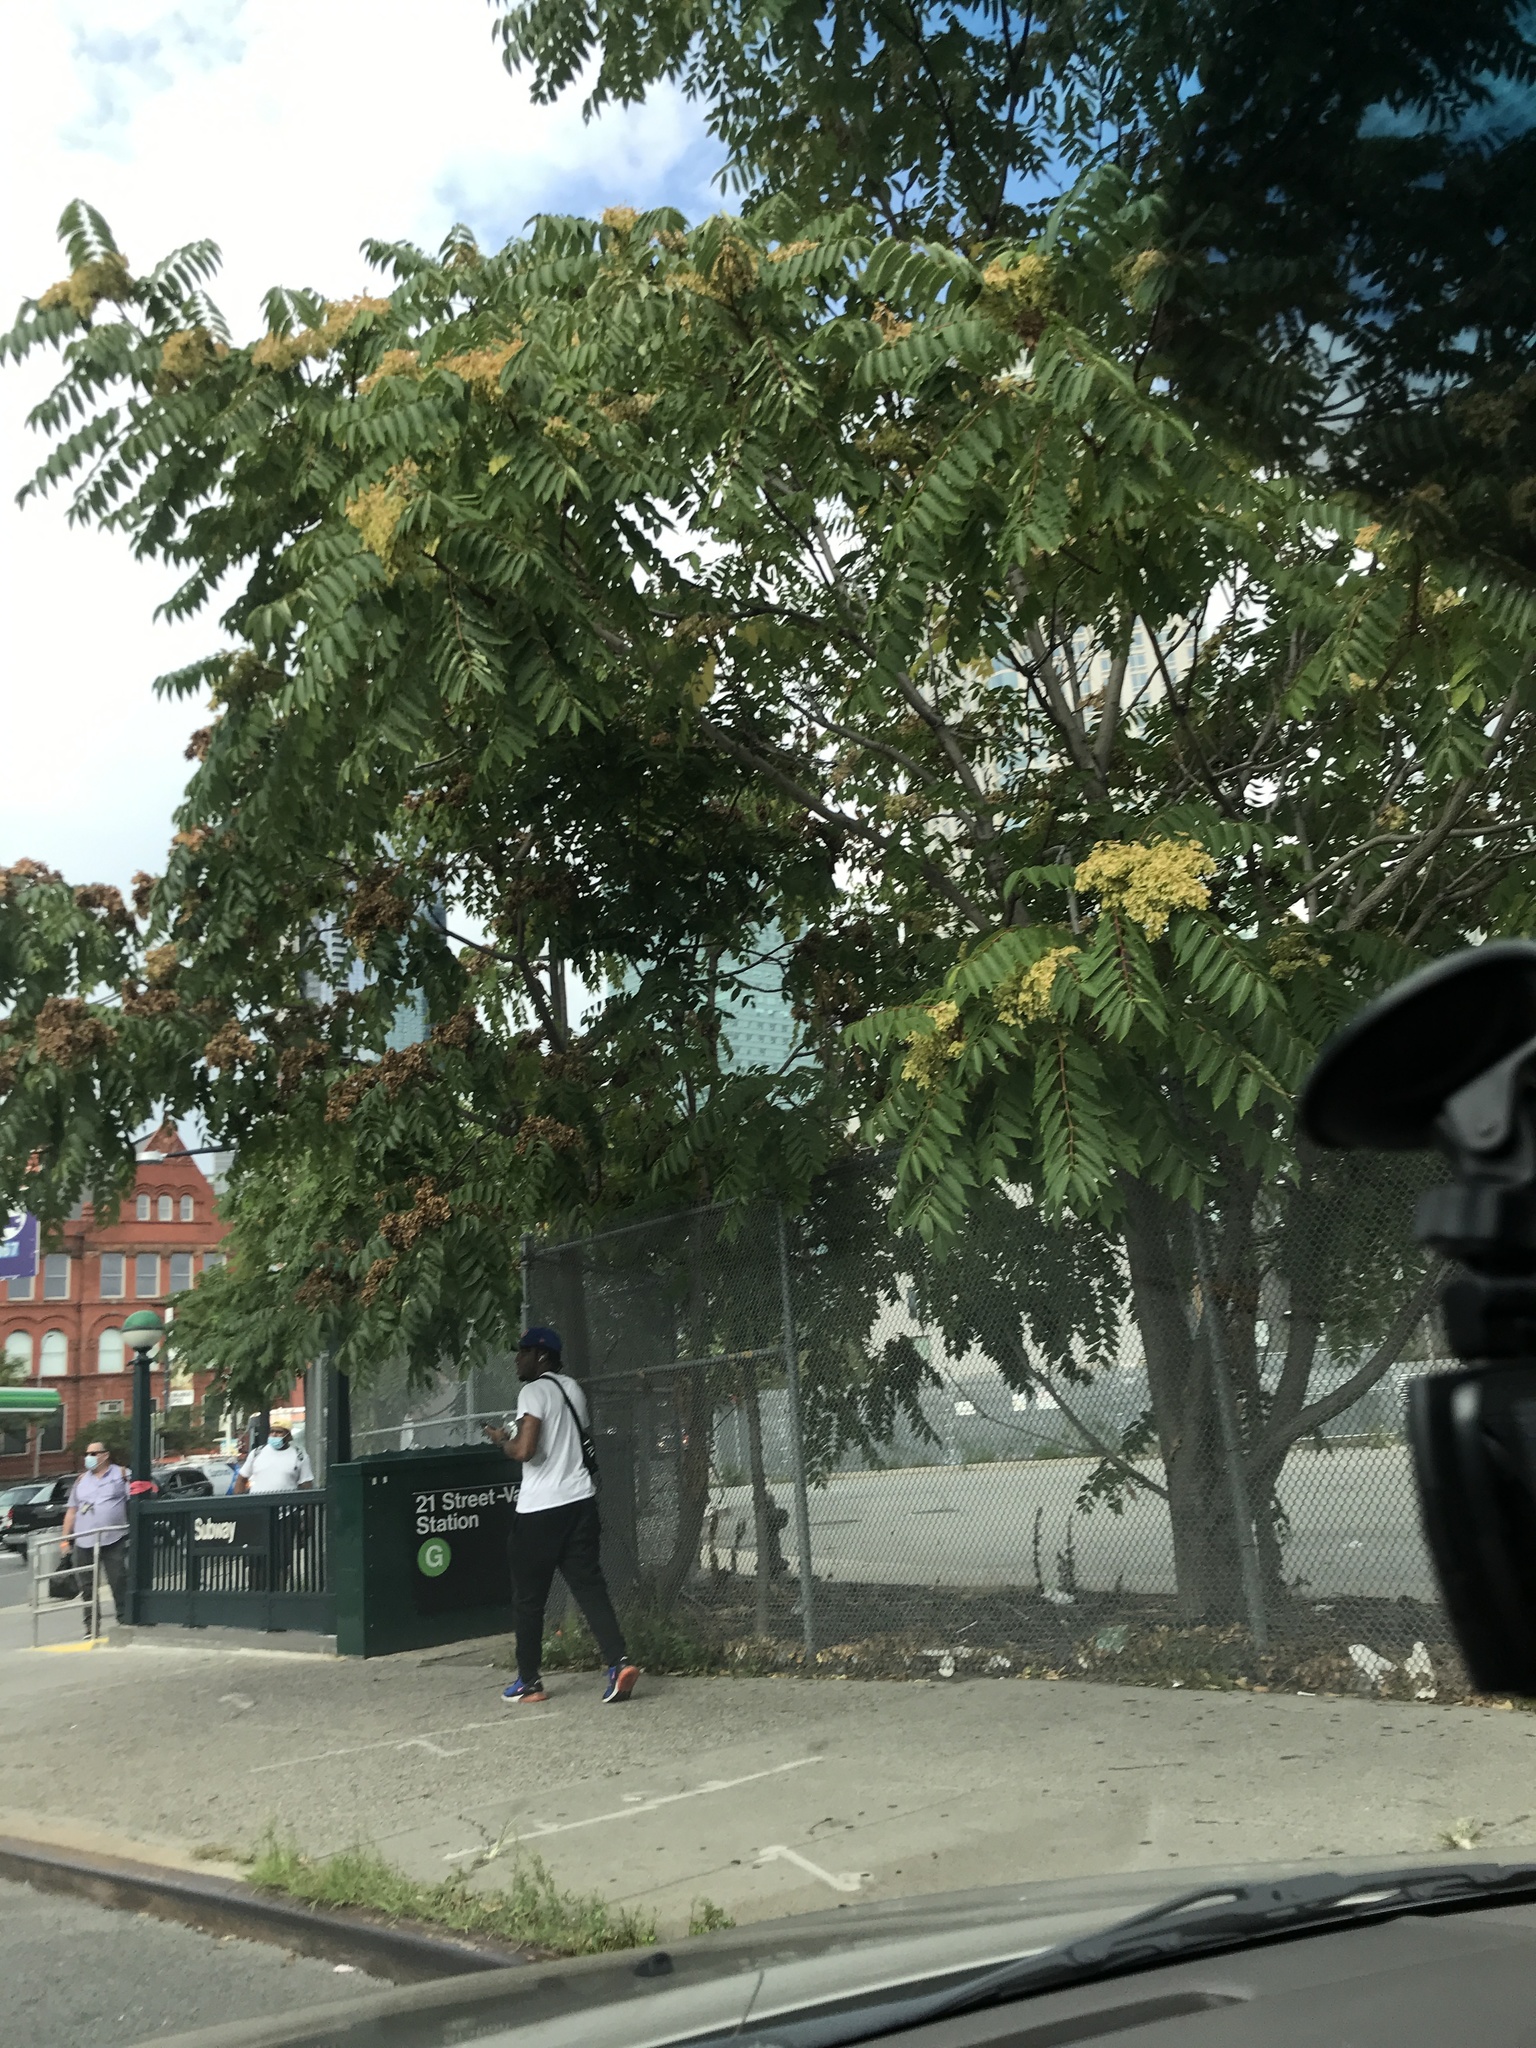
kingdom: Plantae
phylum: Tracheophyta
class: Magnoliopsida
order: Sapindales
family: Simaroubaceae
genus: Ailanthus
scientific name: Ailanthus altissima
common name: Tree-of-heaven
